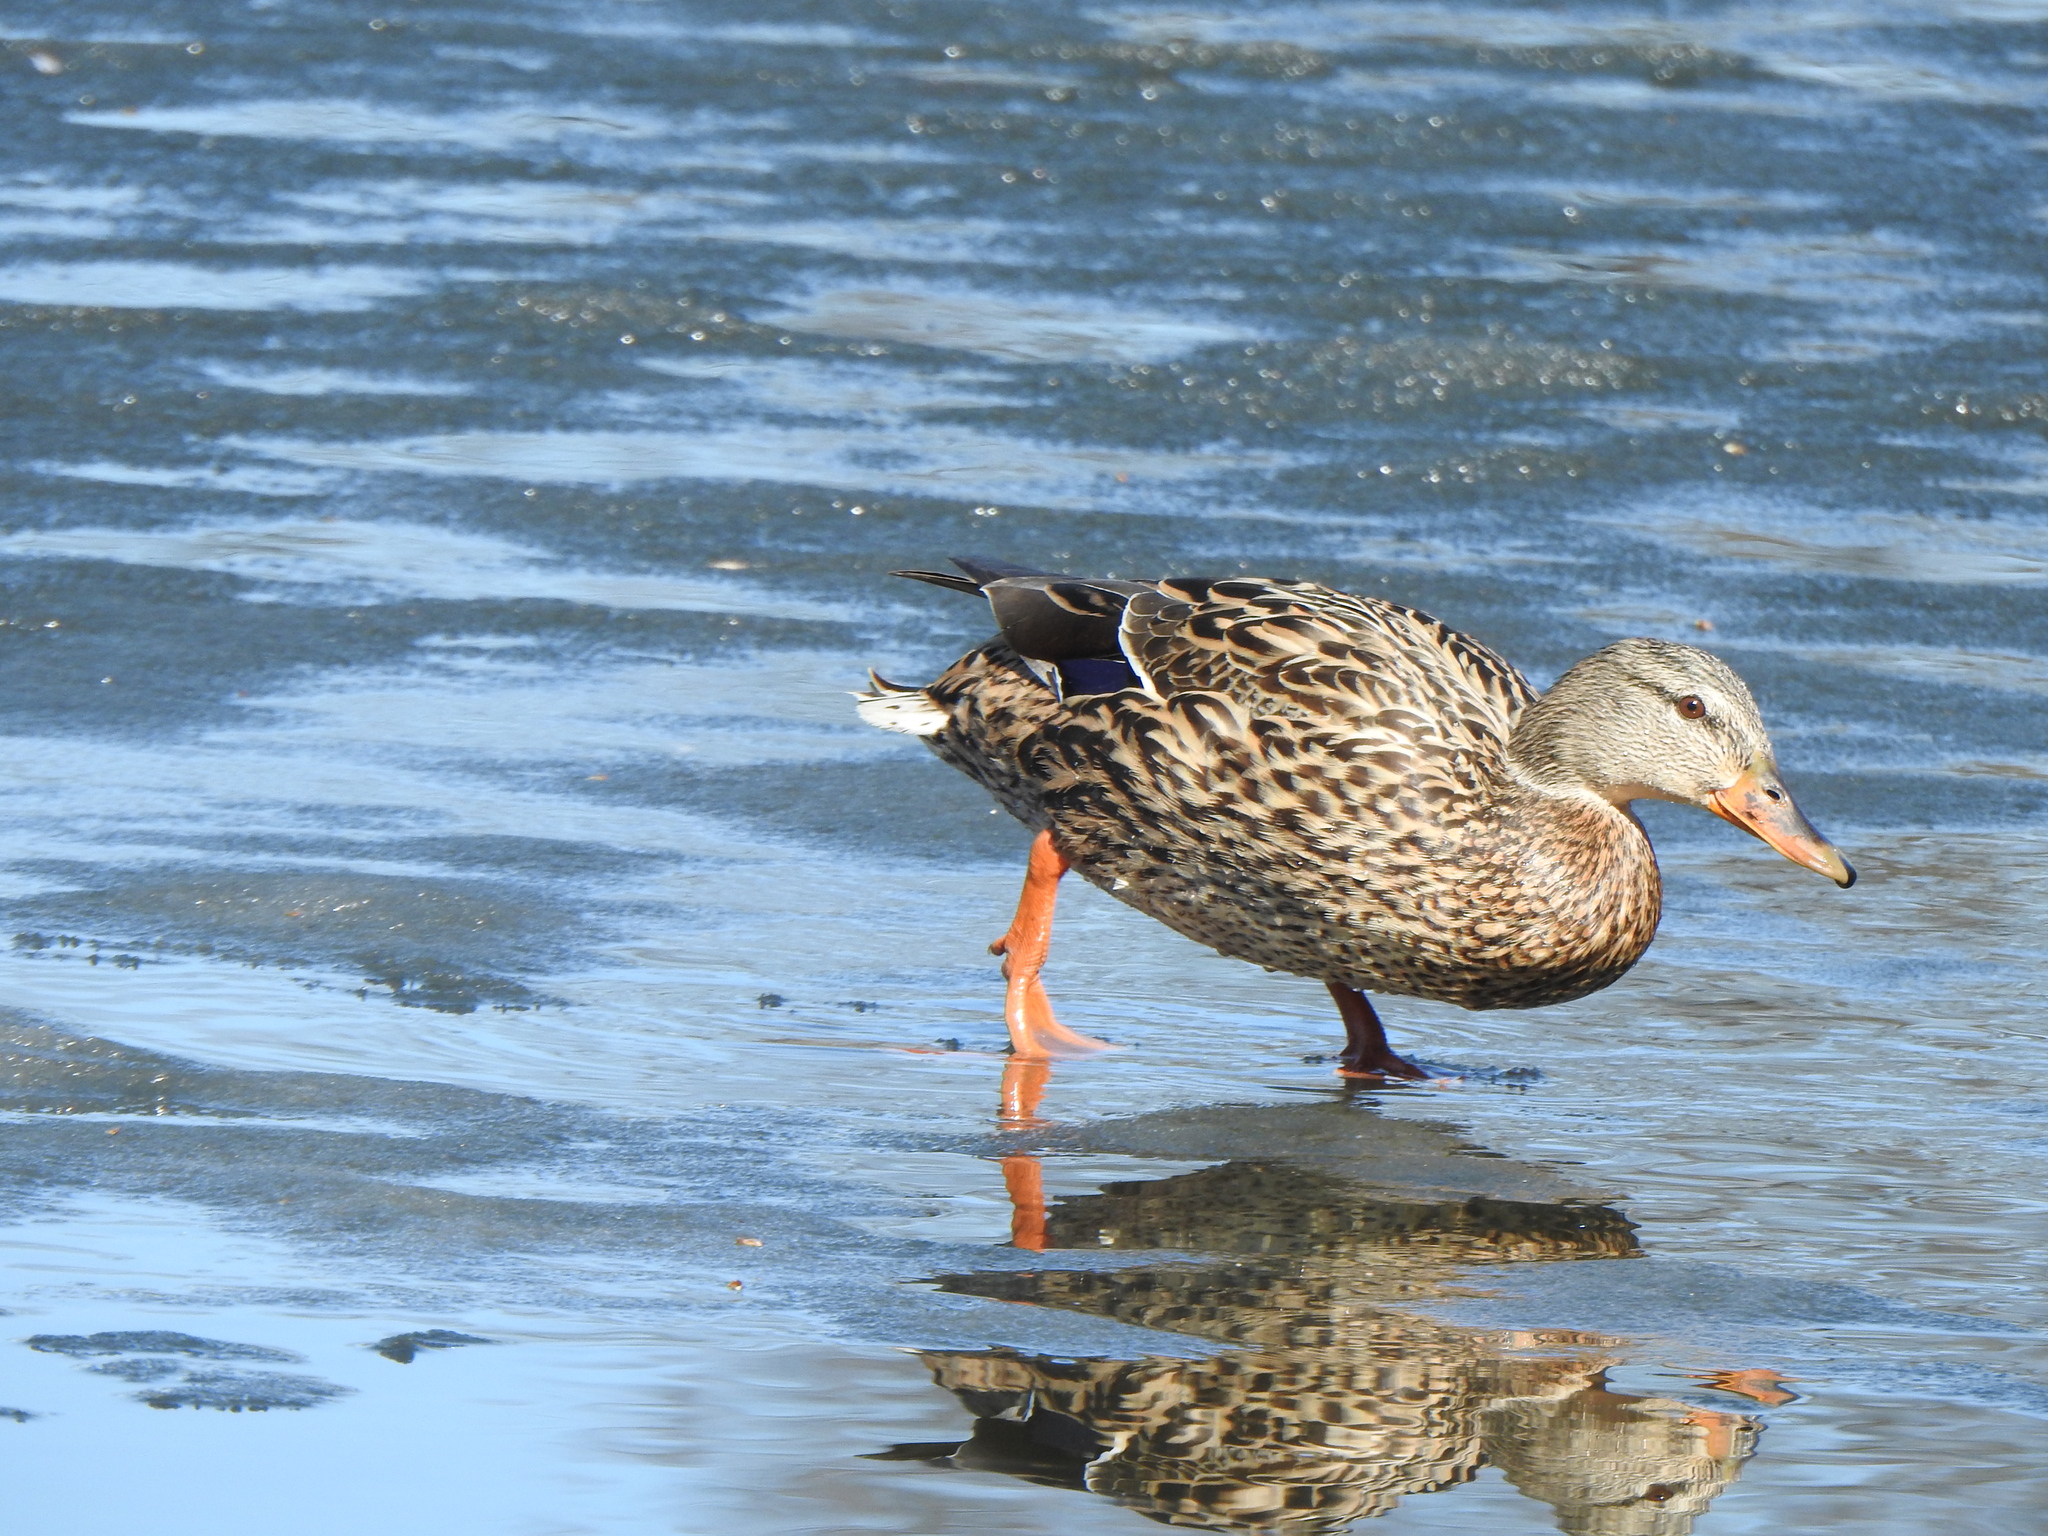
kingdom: Animalia
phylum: Chordata
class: Aves
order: Anseriformes
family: Anatidae
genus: Anas
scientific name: Anas platyrhynchos
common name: Mallard
